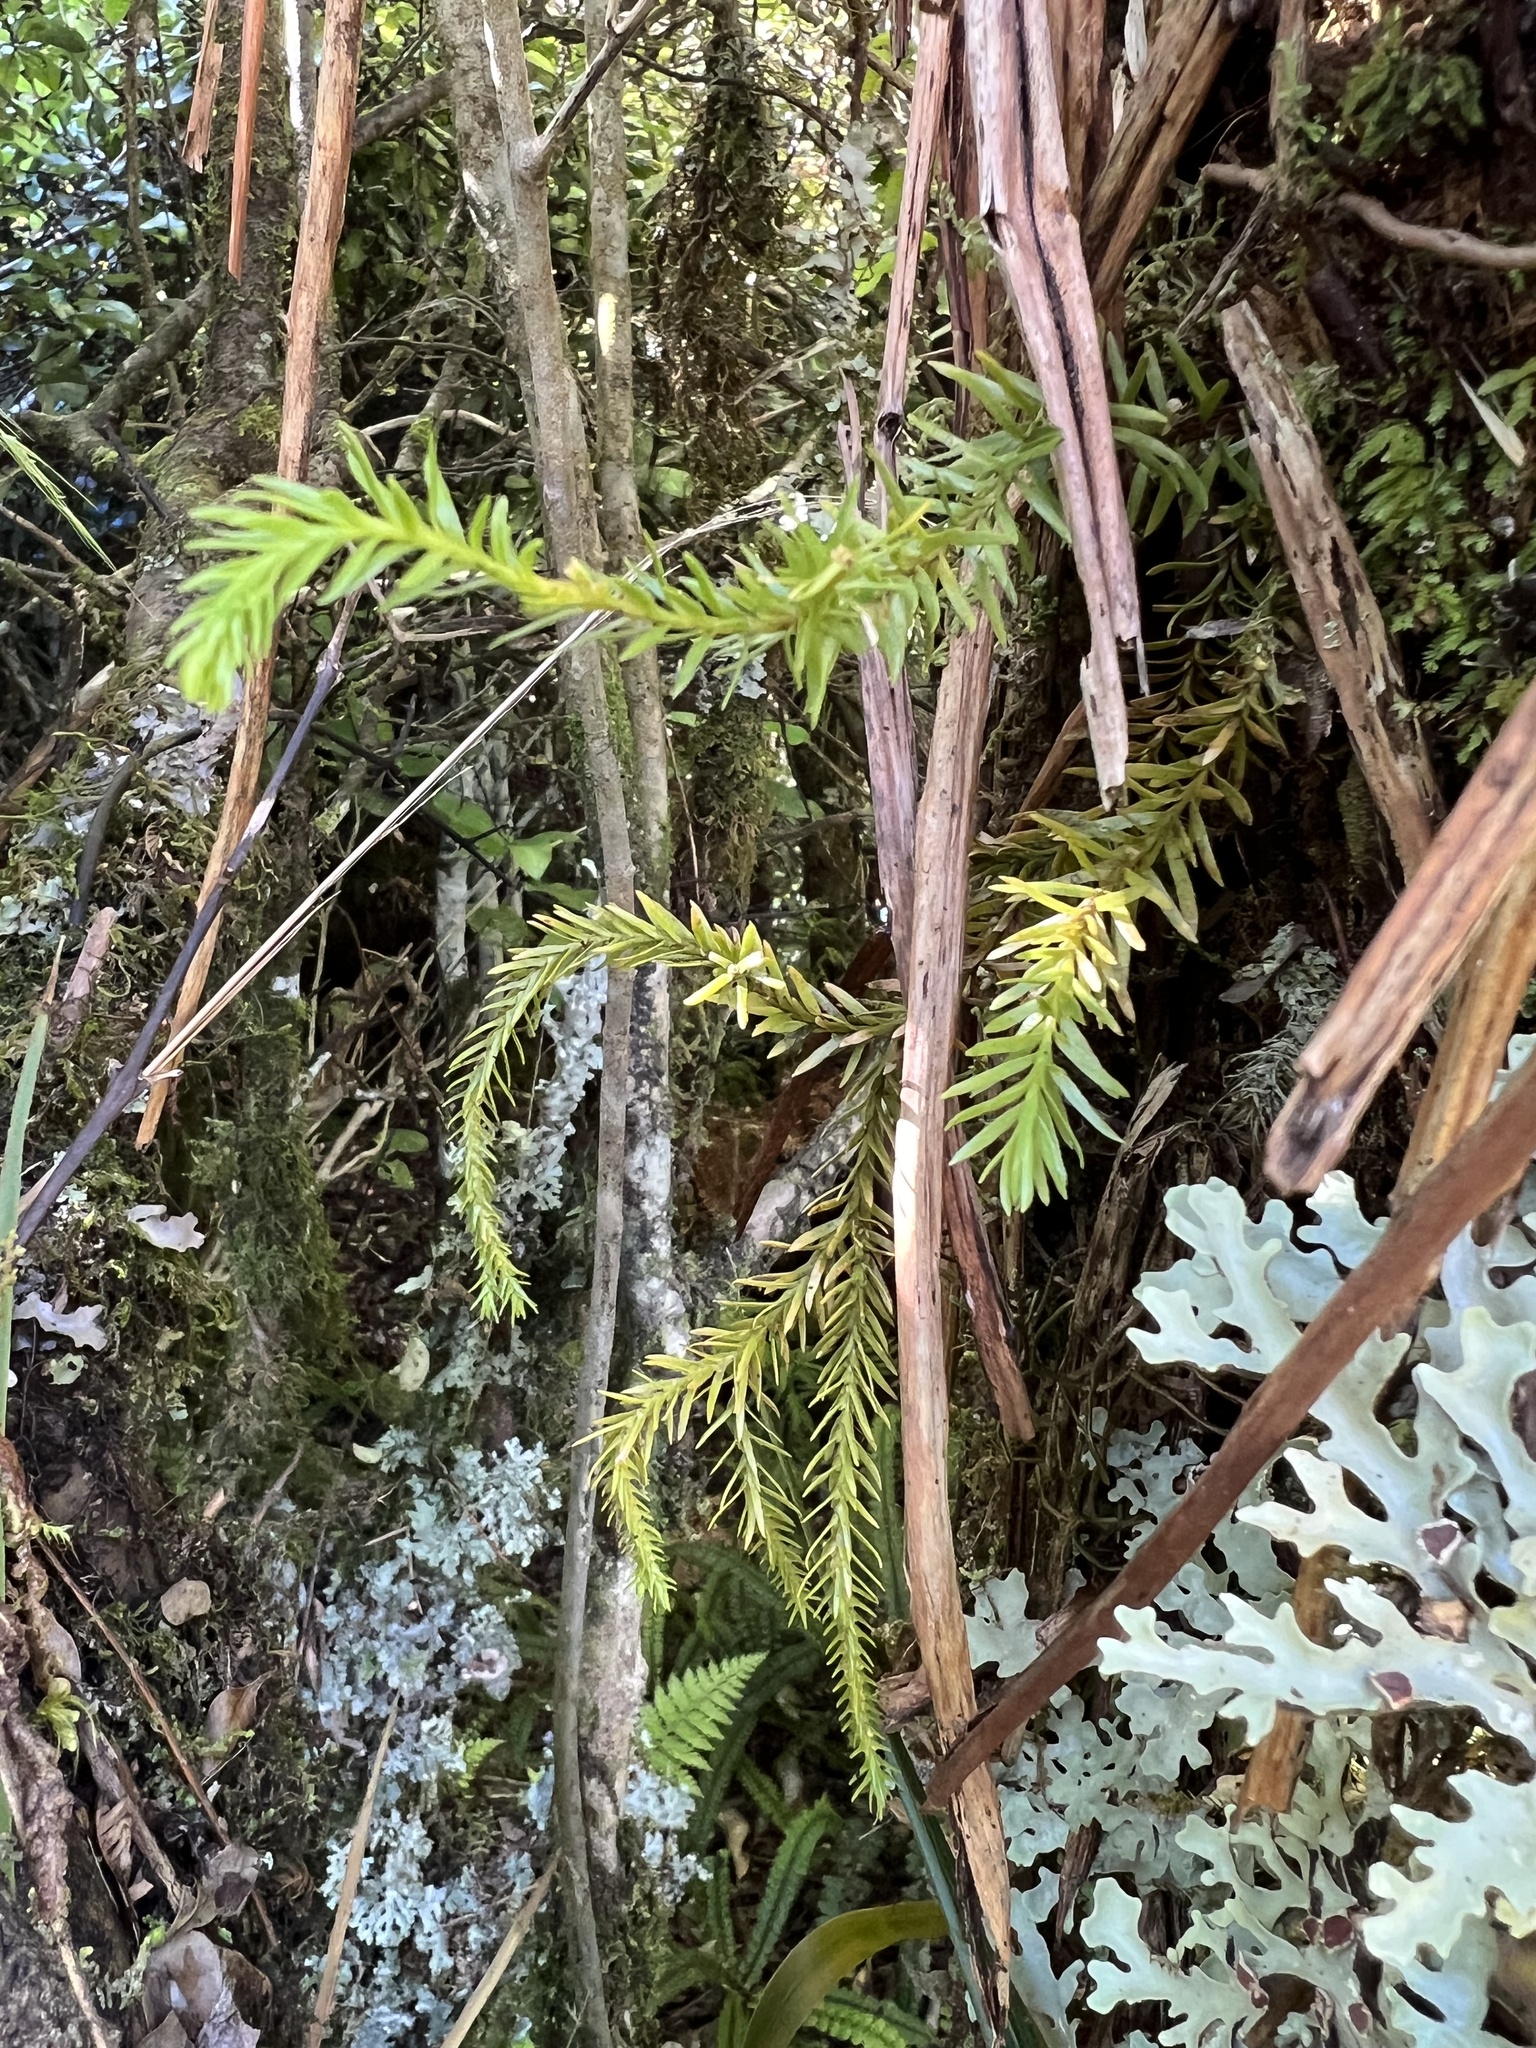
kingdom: Plantae
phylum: Tracheophyta
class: Lycopodiopsida
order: Lycopodiales
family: Lycopodiaceae
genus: Phlegmariurus
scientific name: Phlegmariurus varius
